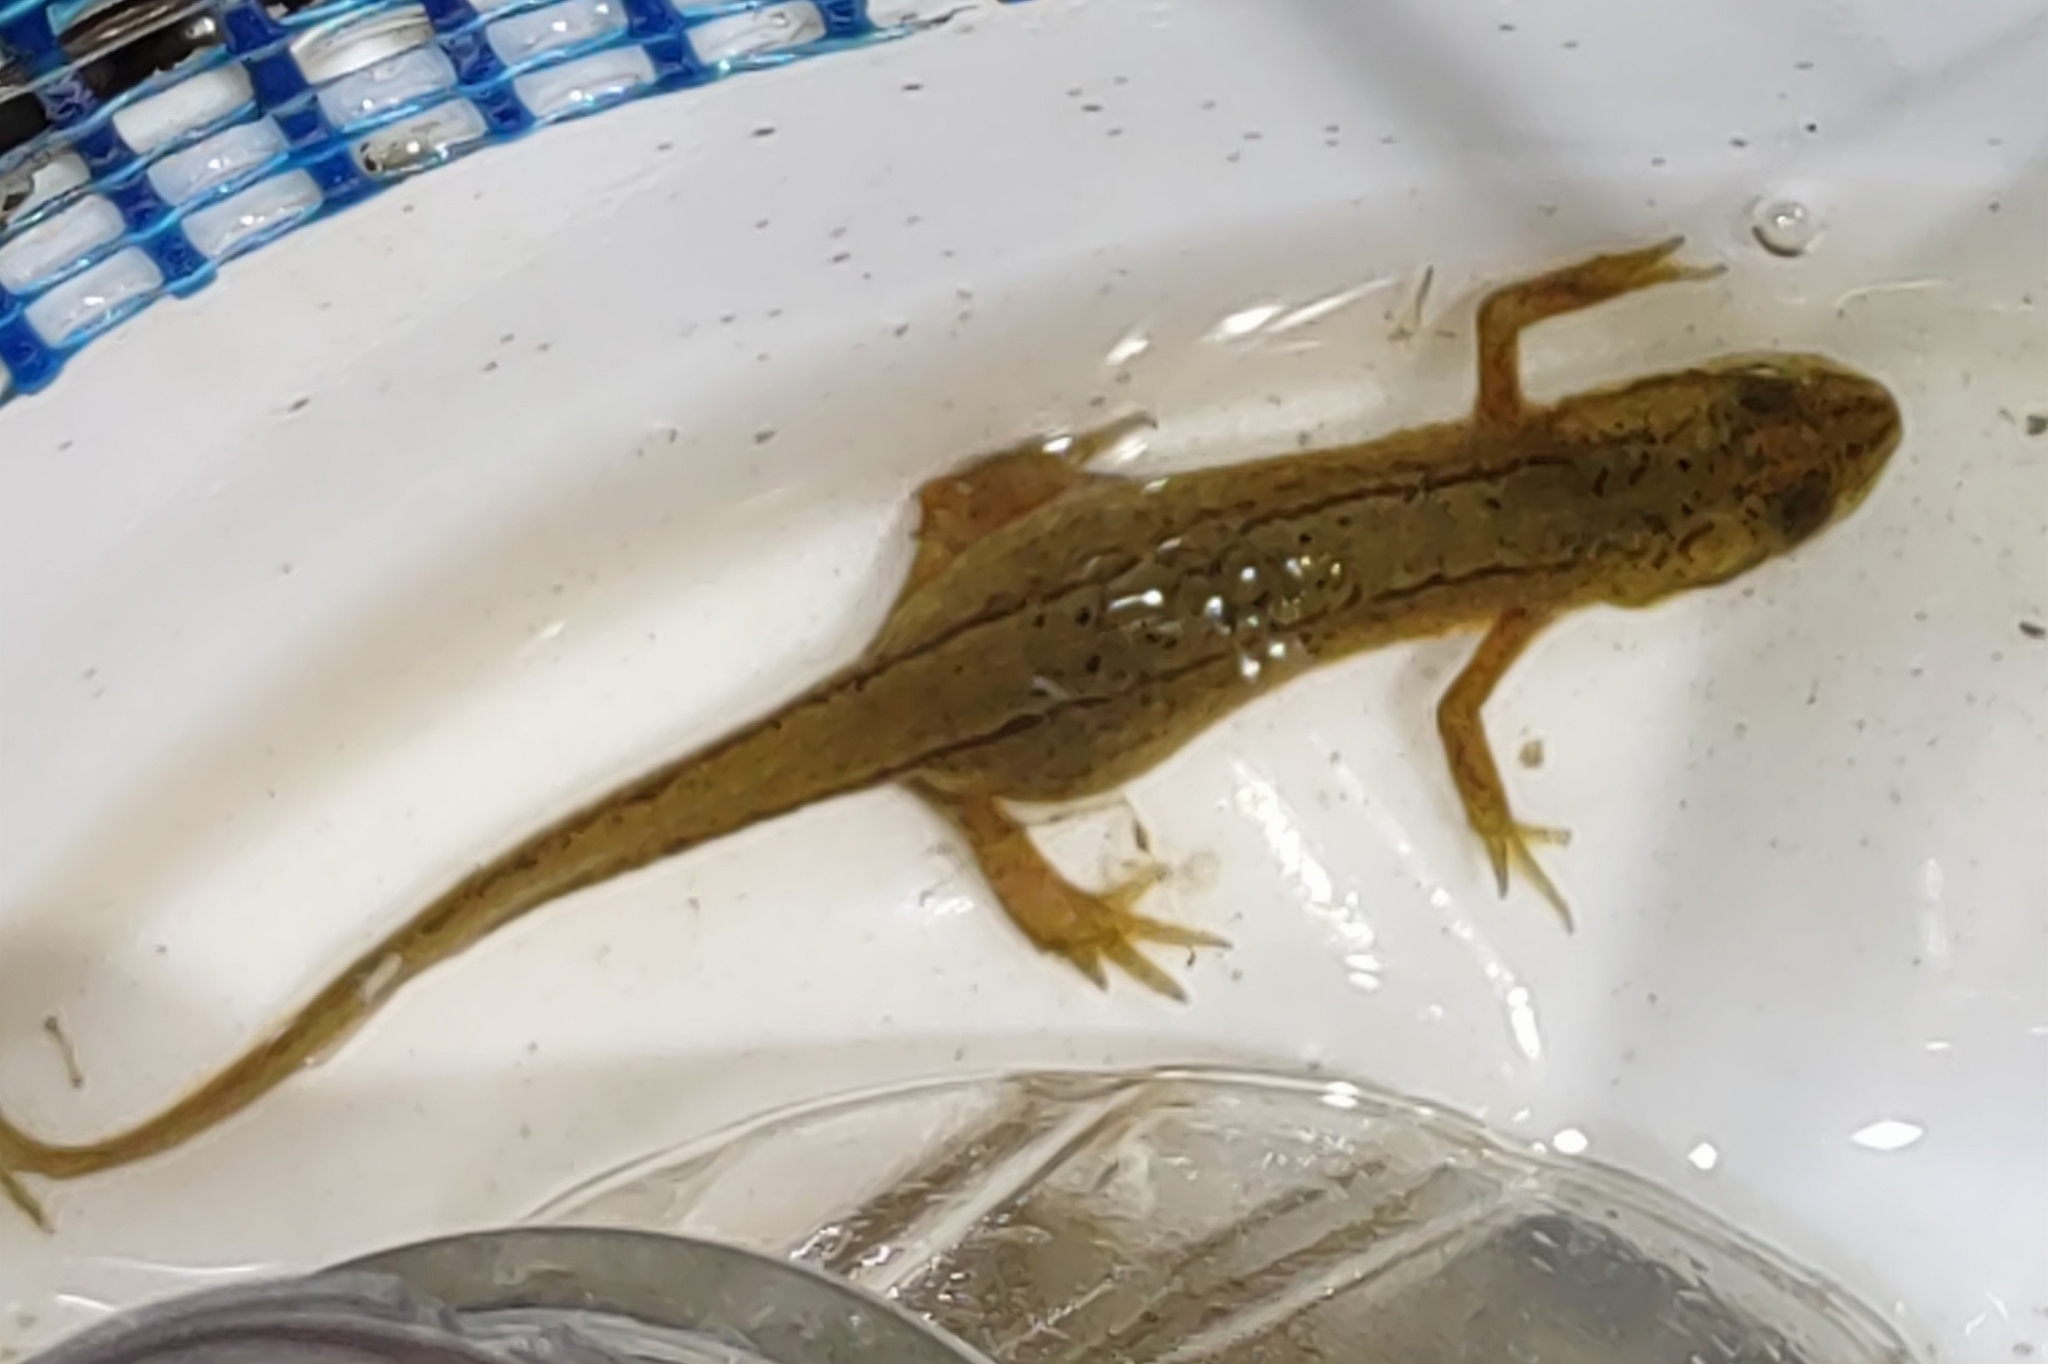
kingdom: Animalia
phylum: Chordata
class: Amphibia
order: Caudata
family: Salamandridae
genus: Lissotriton
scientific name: Lissotriton vulgaris
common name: Smooth newt
